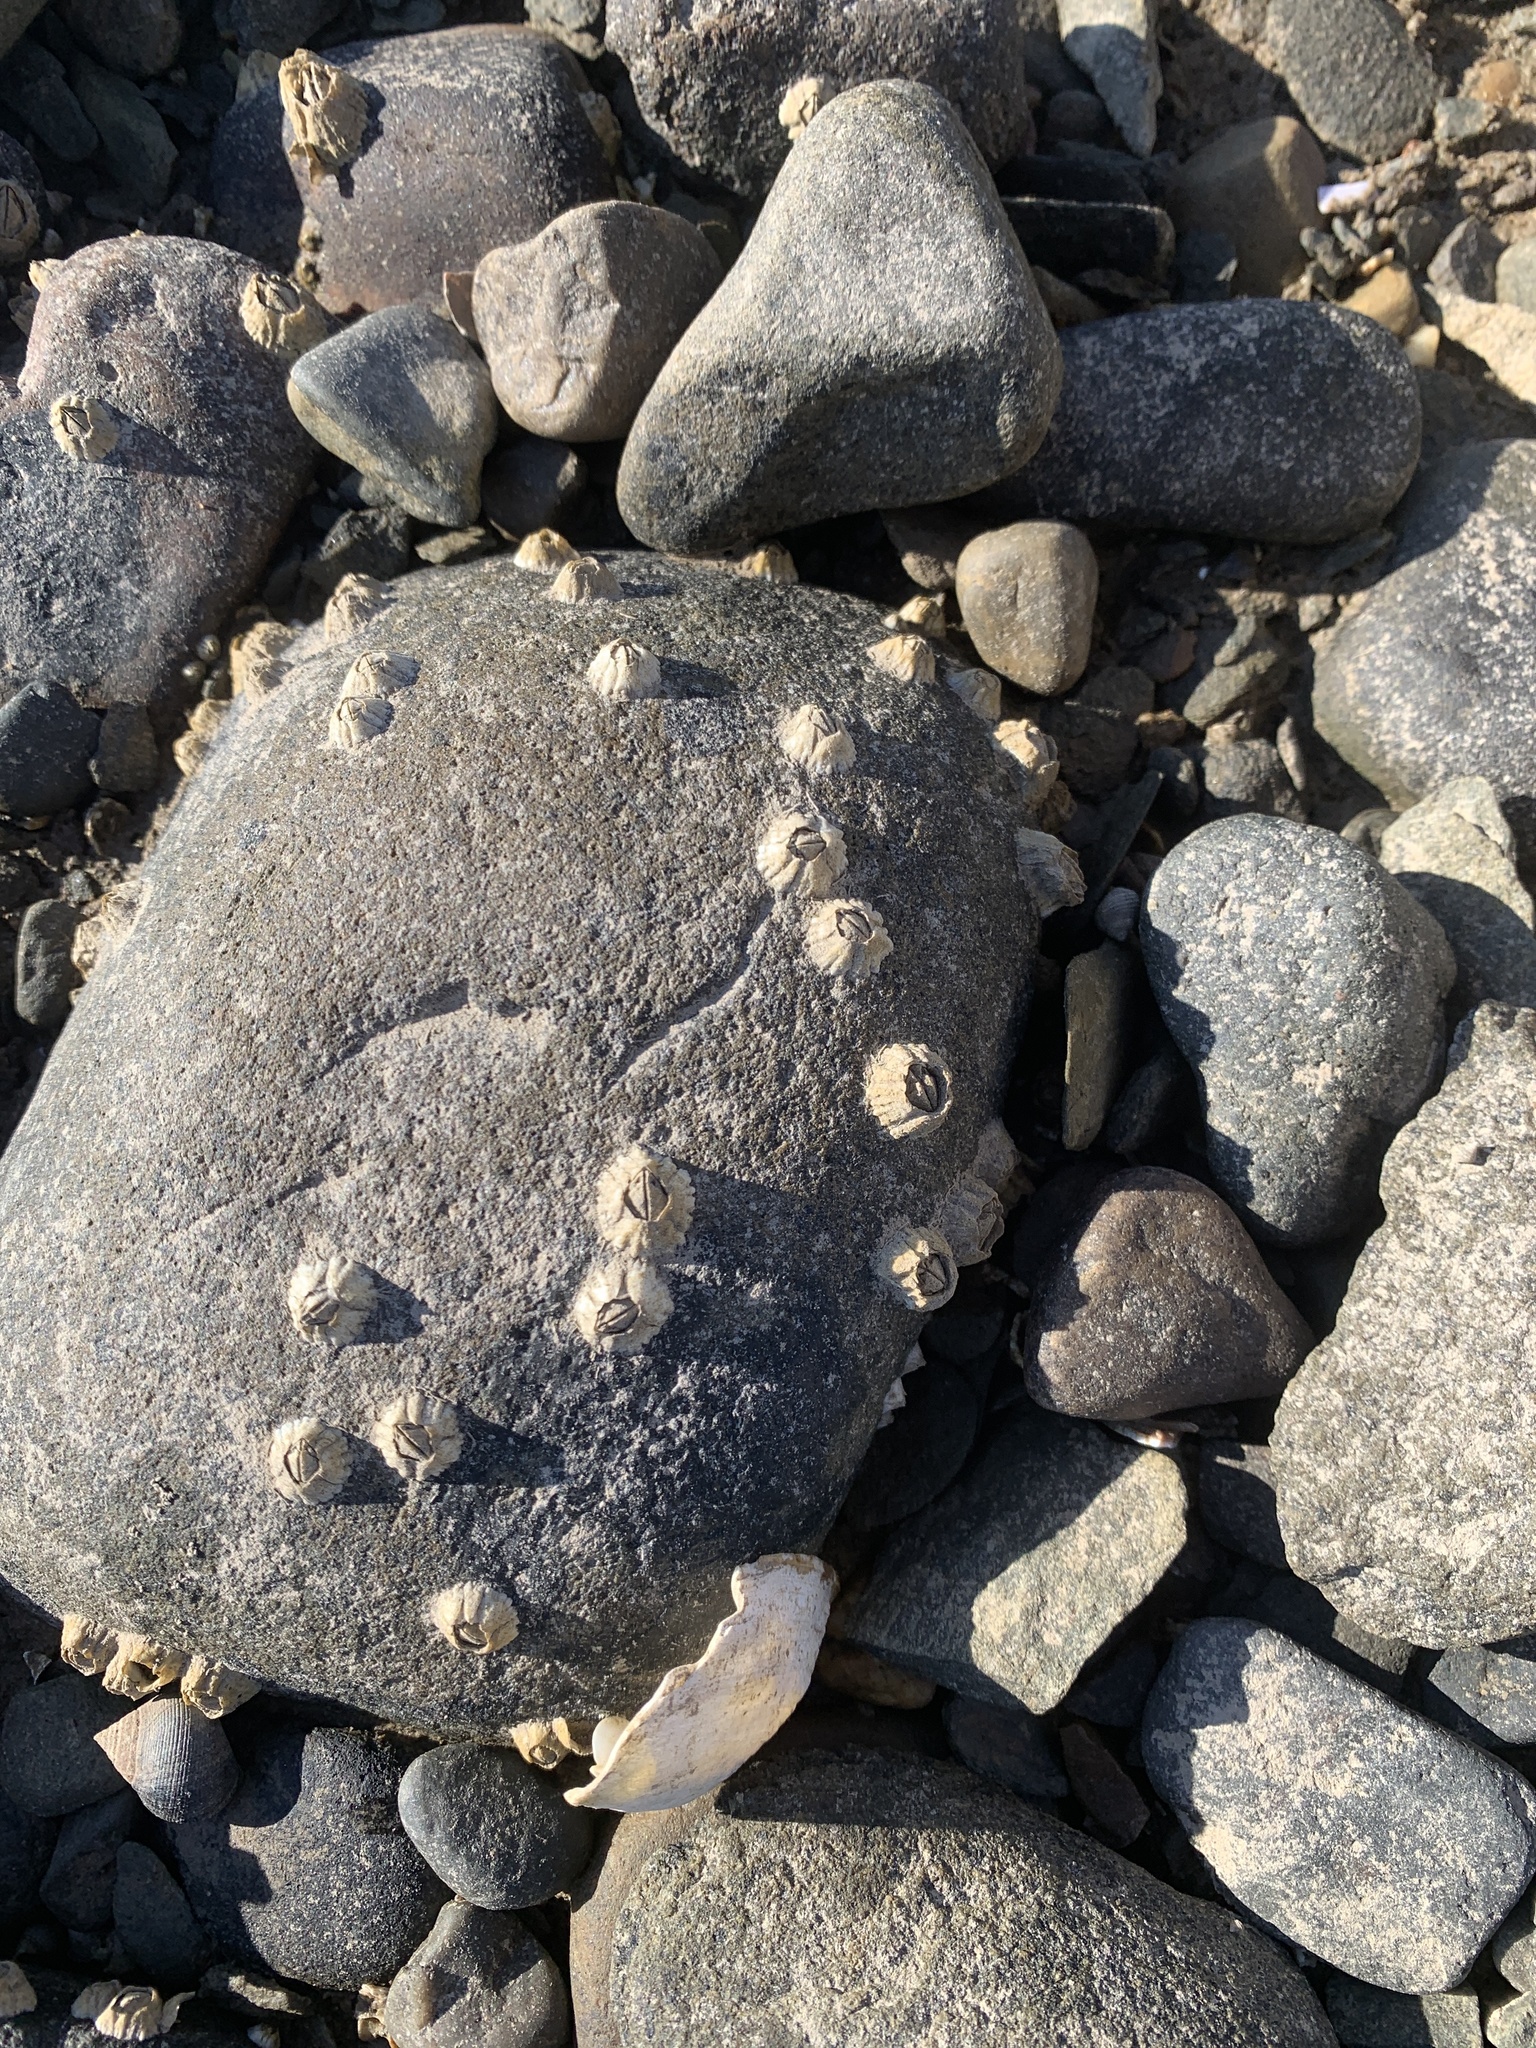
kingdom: Animalia
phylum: Arthropoda
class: Maxillopoda
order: Sessilia
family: Archaeobalanidae
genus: Semibalanus
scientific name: Semibalanus balanoides
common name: Acorn barnacle
